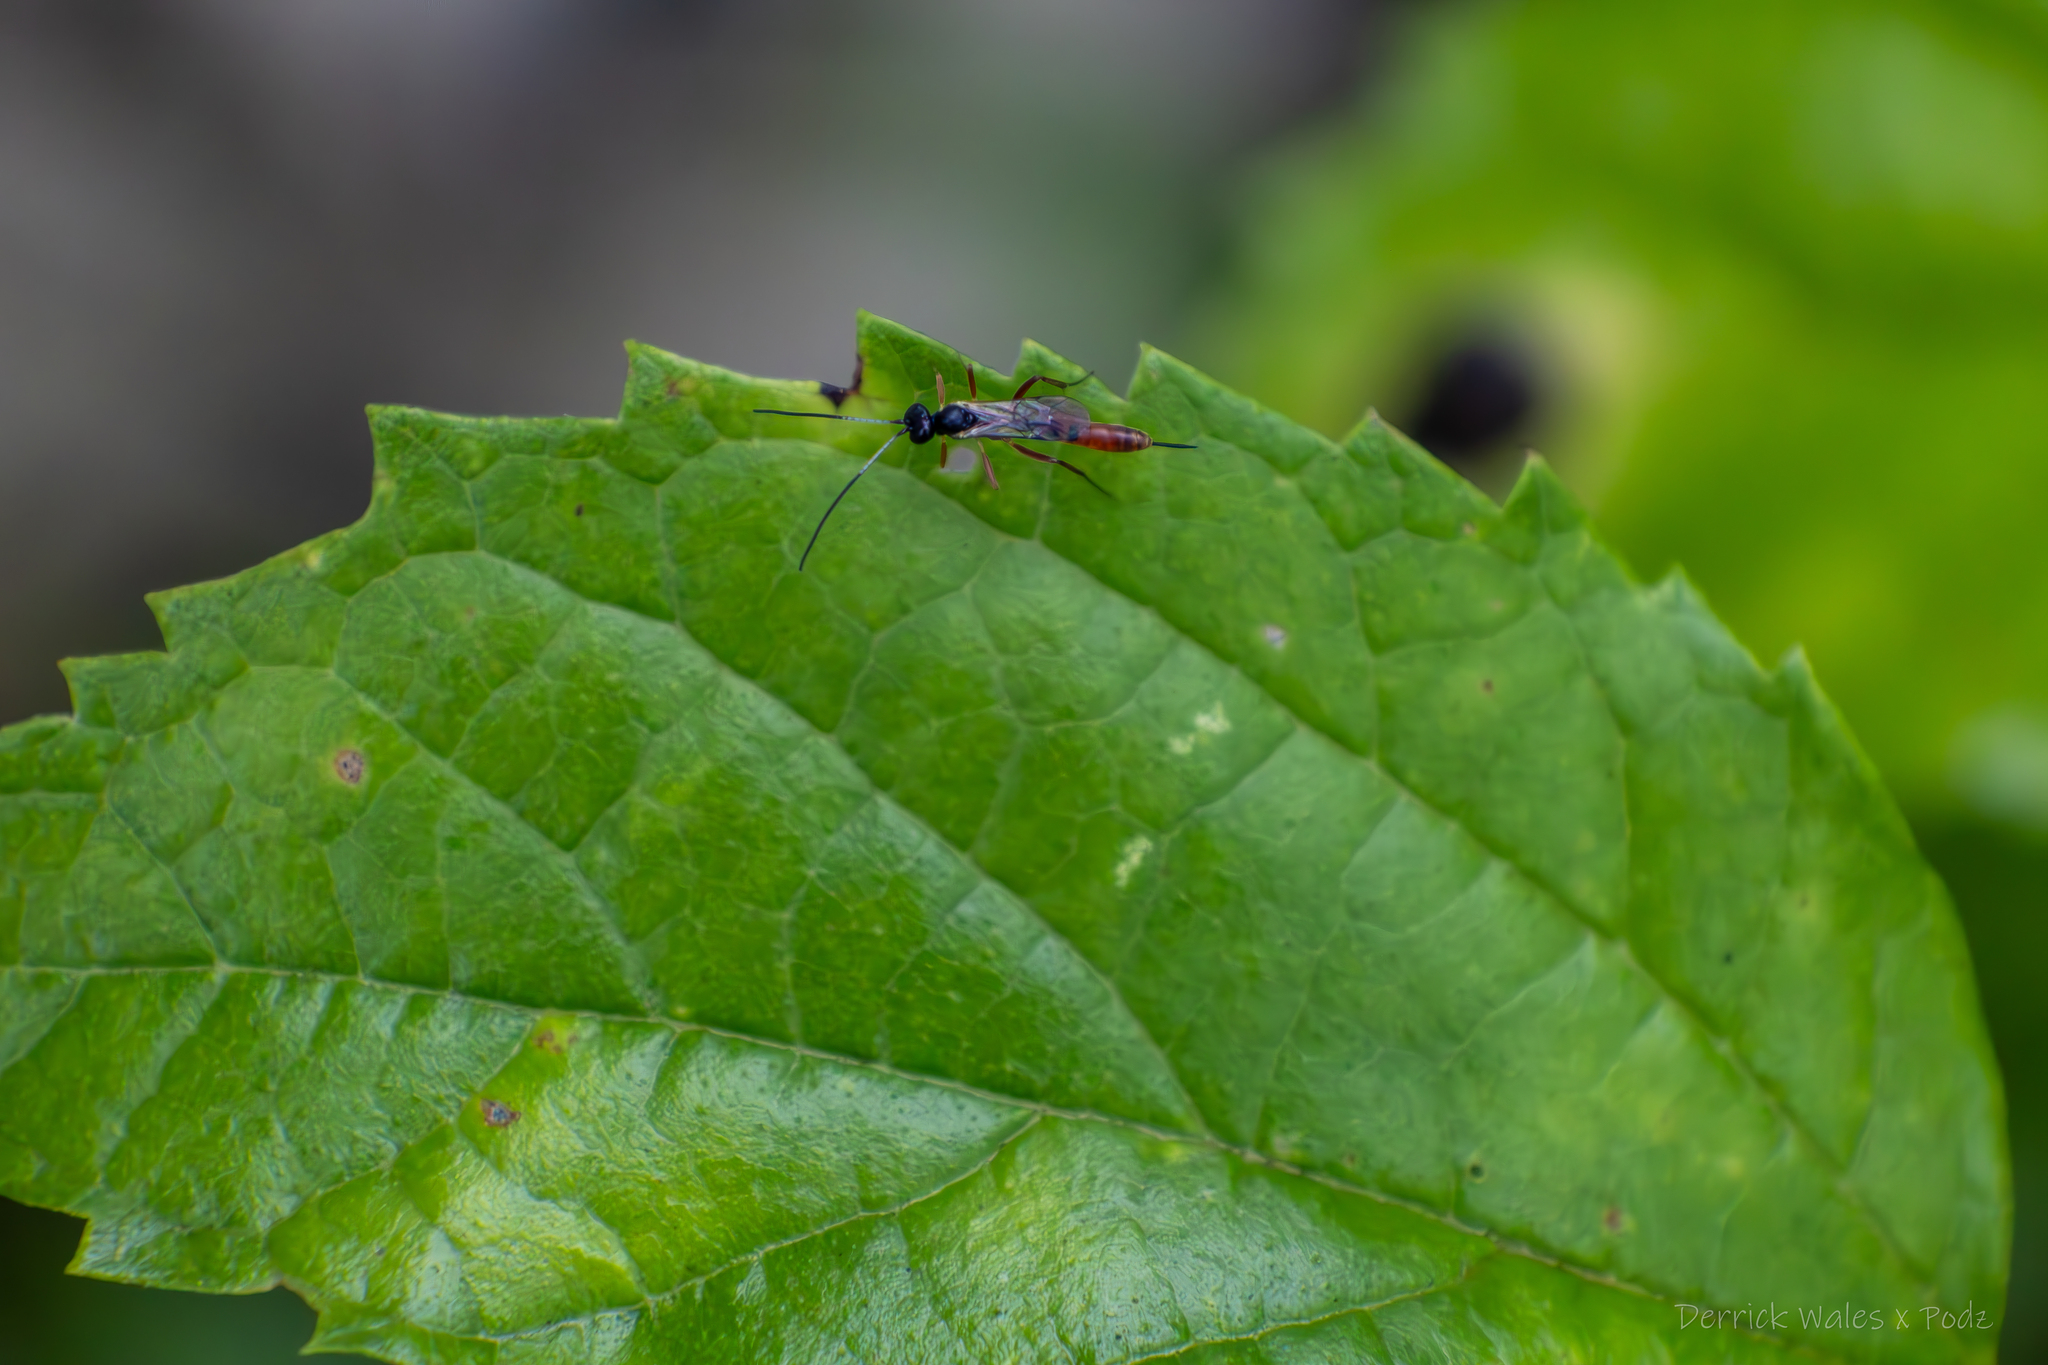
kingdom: Animalia
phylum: Arthropoda
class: Insecta
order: Hymenoptera
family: Ichneumonidae
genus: Cymodusa
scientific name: Cymodusa distincta
